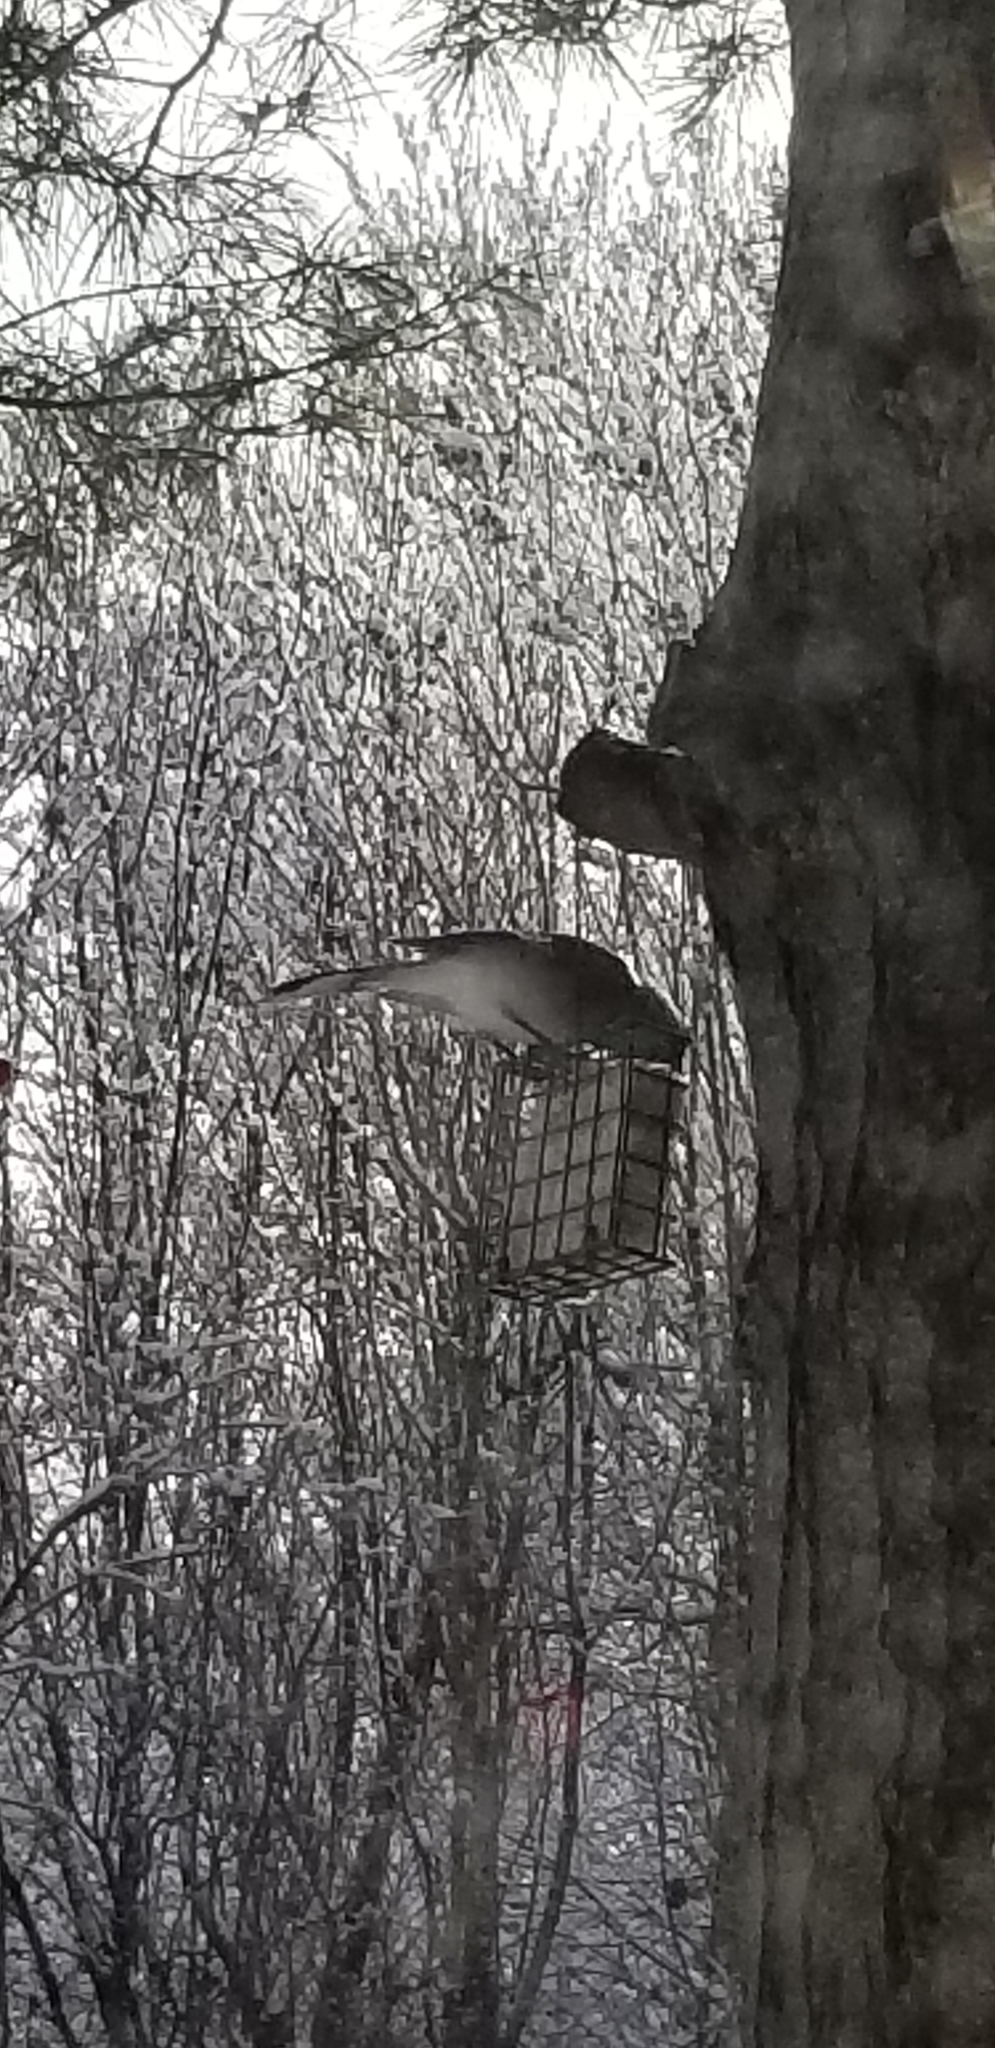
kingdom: Animalia
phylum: Chordata
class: Aves
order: Passeriformes
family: Corvidae
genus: Cyanocitta
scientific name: Cyanocitta cristata
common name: Blue jay
